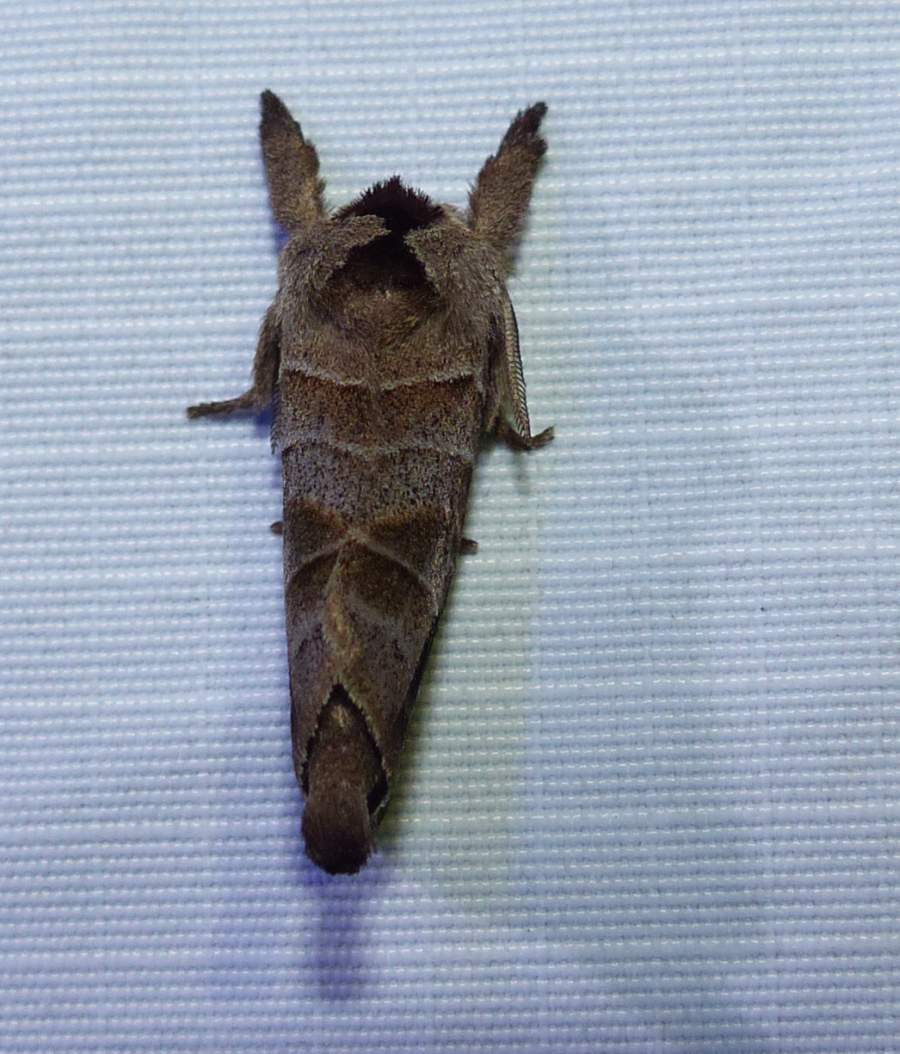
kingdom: Animalia
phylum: Arthropoda
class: Insecta
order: Lepidoptera
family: Notodontidae
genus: Clostera
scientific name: Clostera albosigma
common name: Sigmoid prominent
